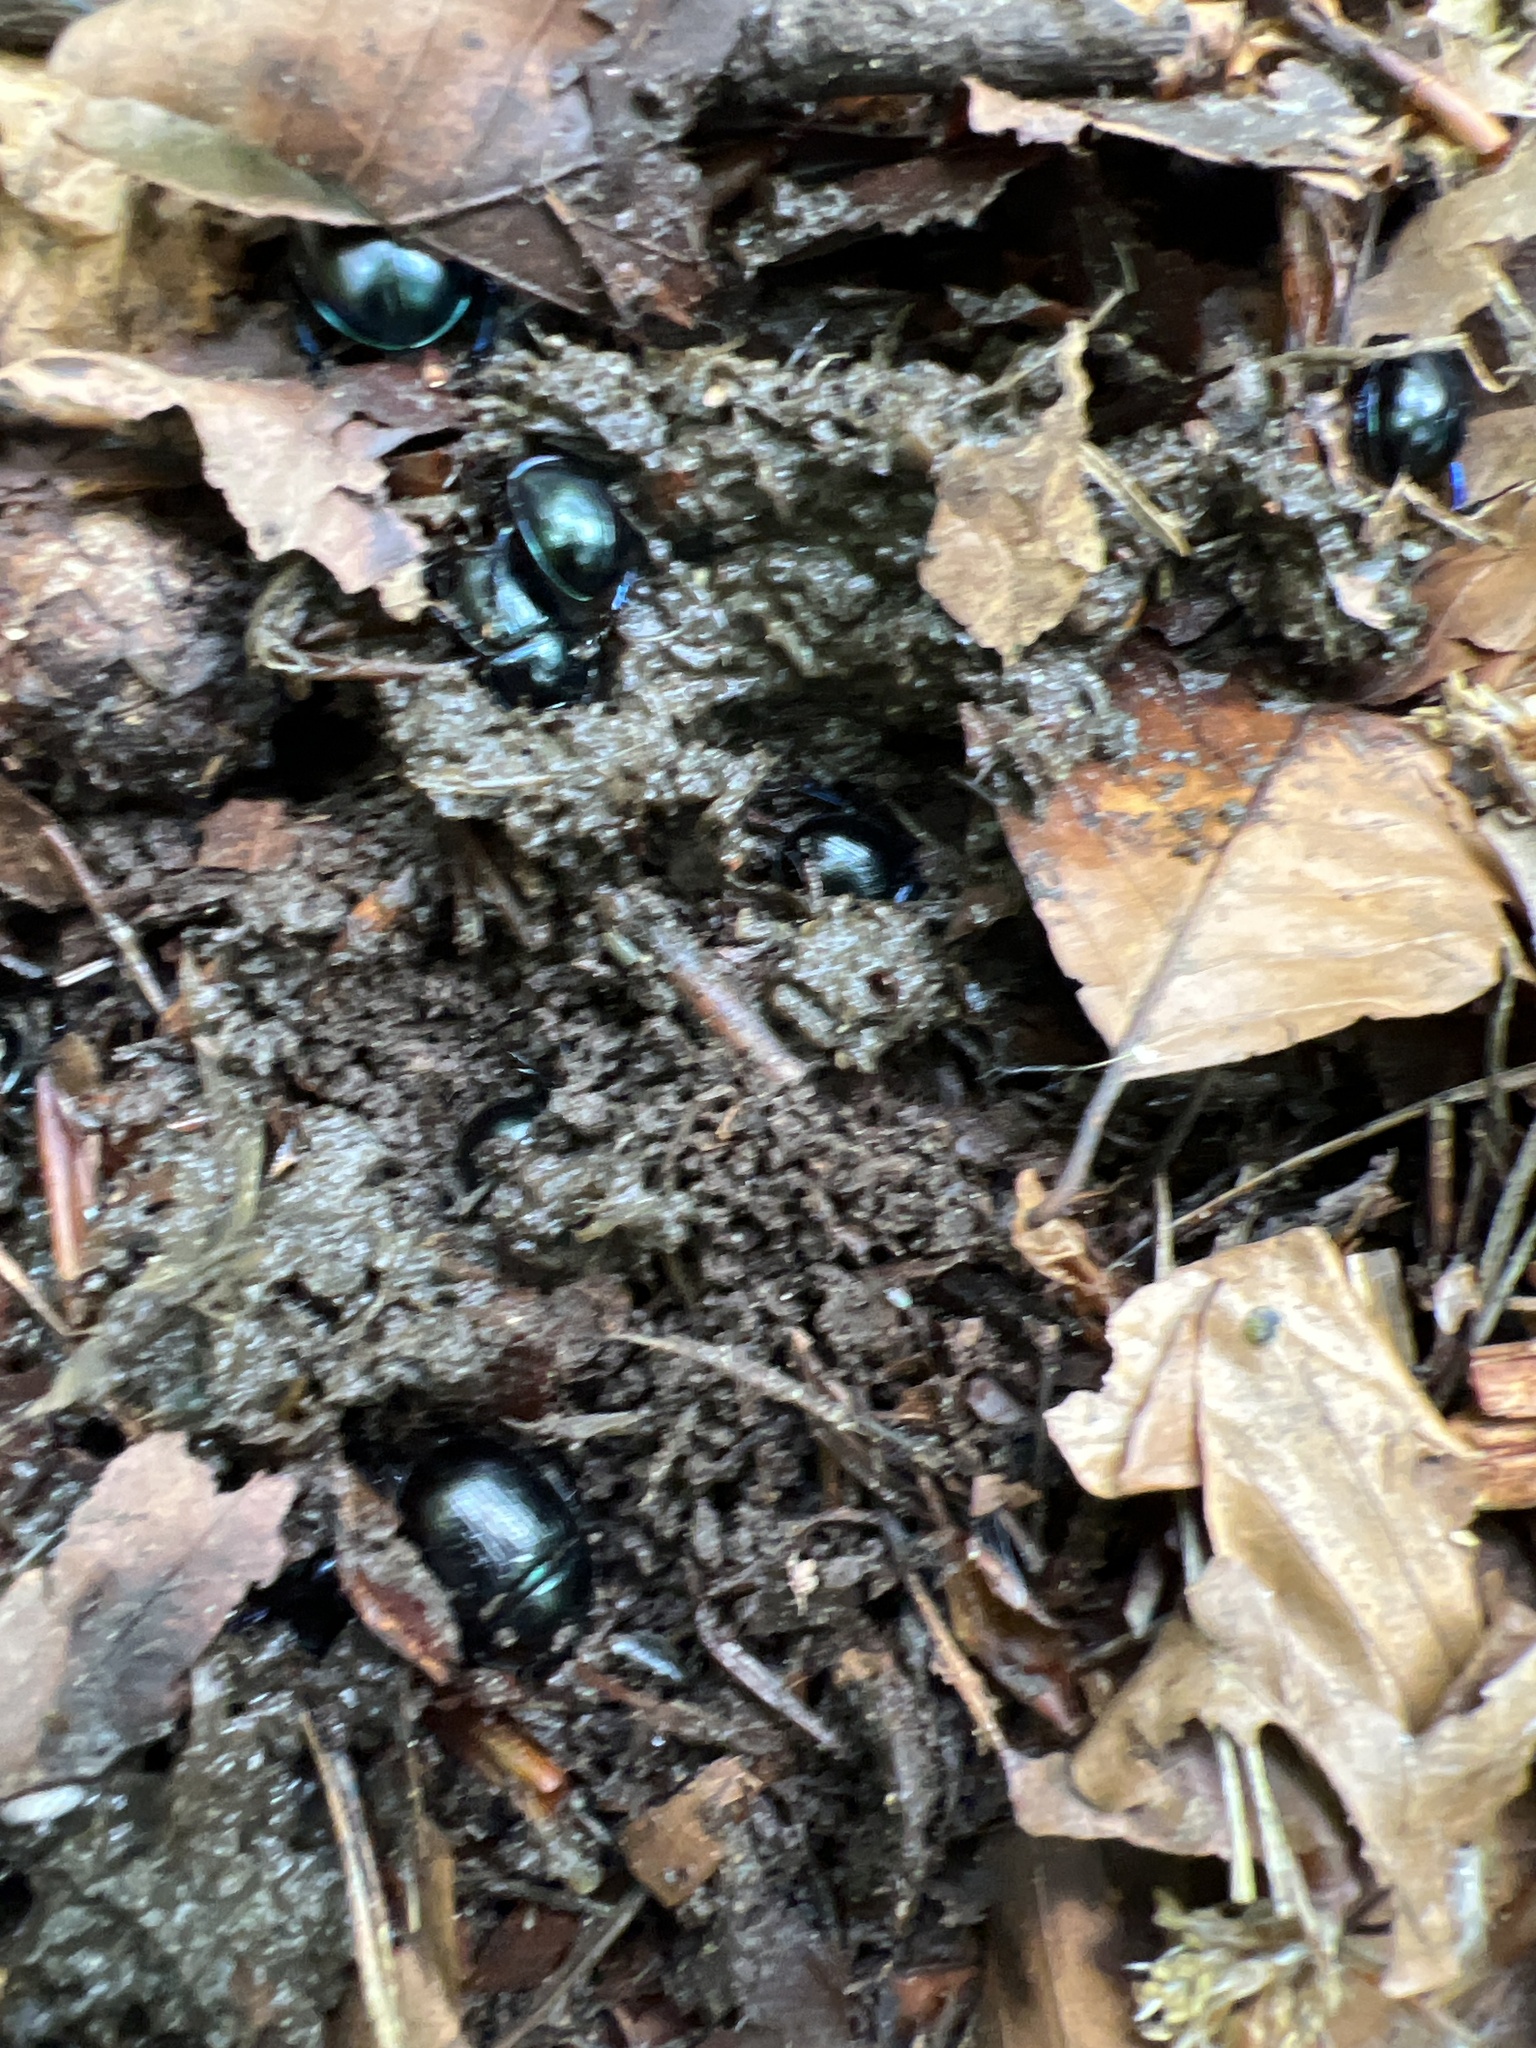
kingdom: Animalia
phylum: Arthropoda
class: Insecta
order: Coleoptera
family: Geotrupidae
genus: Trypocopris
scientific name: Trypocopris vernalis
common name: Spring dumbledor
